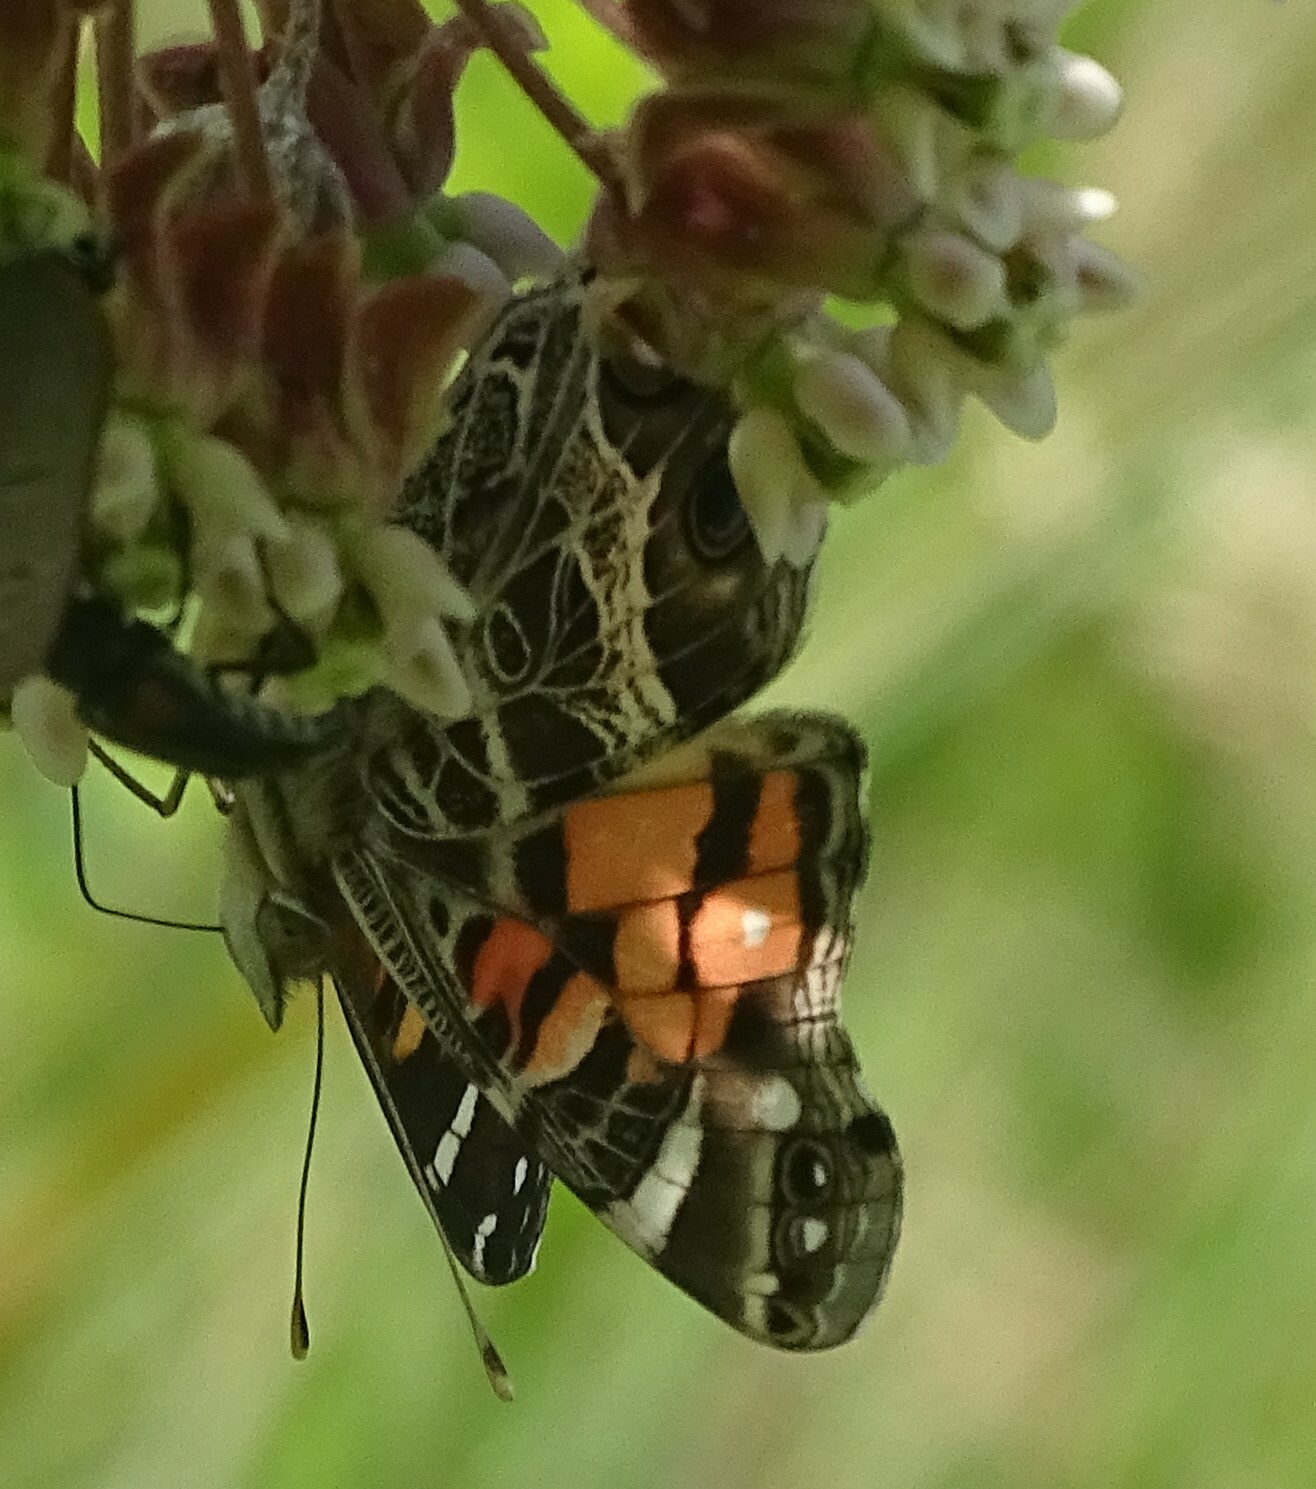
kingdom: Animalia
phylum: Arthropoda
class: Insecta
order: Lepidoptera
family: Nymphalidae
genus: Vanessa
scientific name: Vanessa virginiensis
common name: American lady
